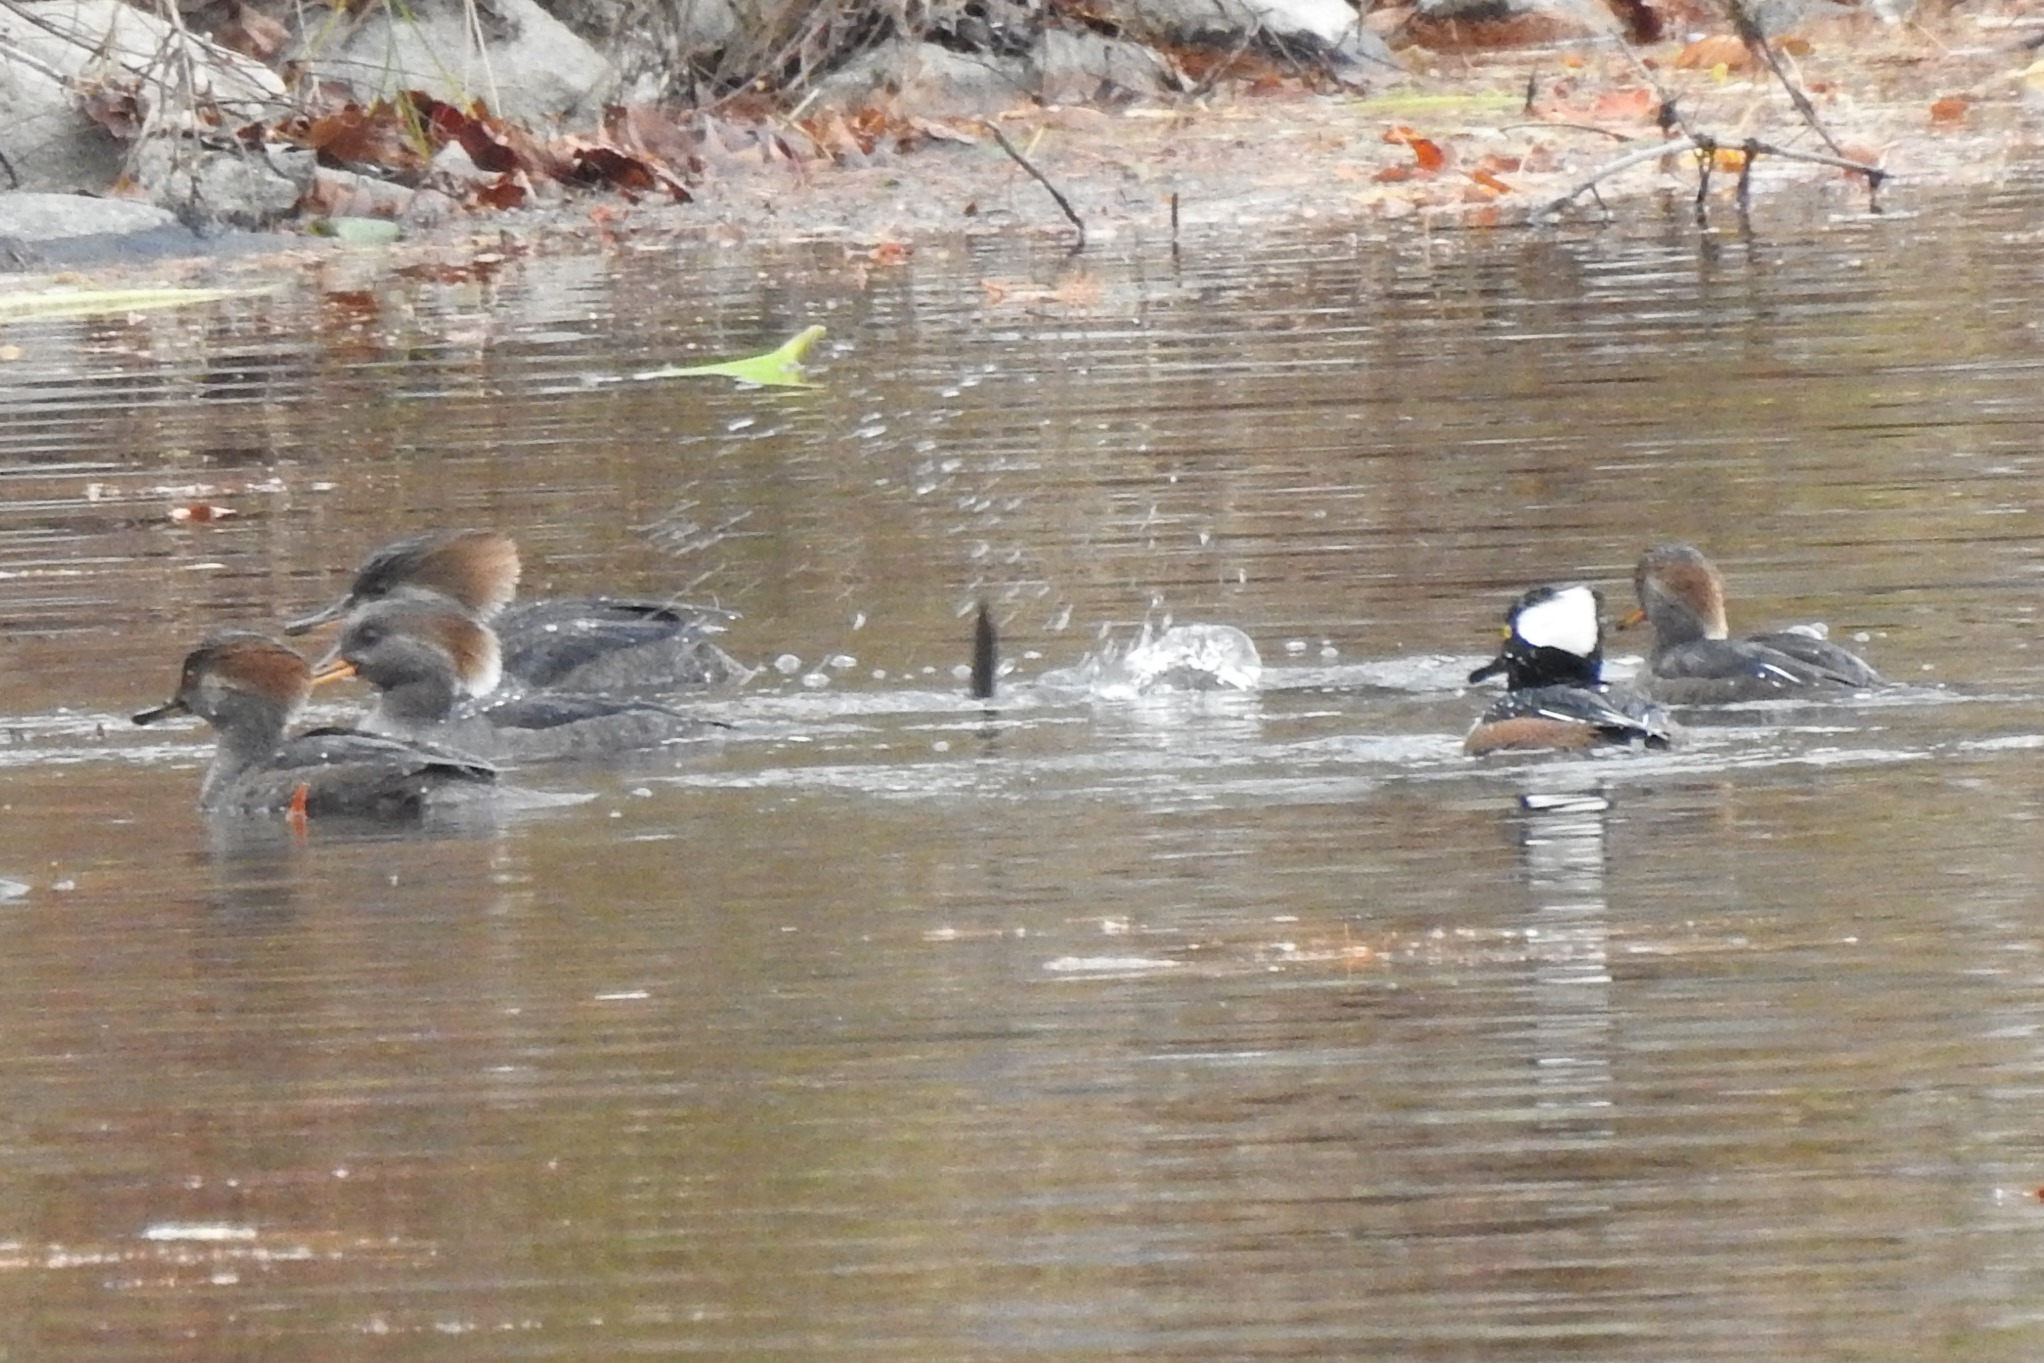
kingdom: Animalia
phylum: Chordata
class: Aves
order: Anseriformes
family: Anatidae
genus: Lophodytes
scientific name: Lophodytes cucullatus
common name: Hooded merganser
